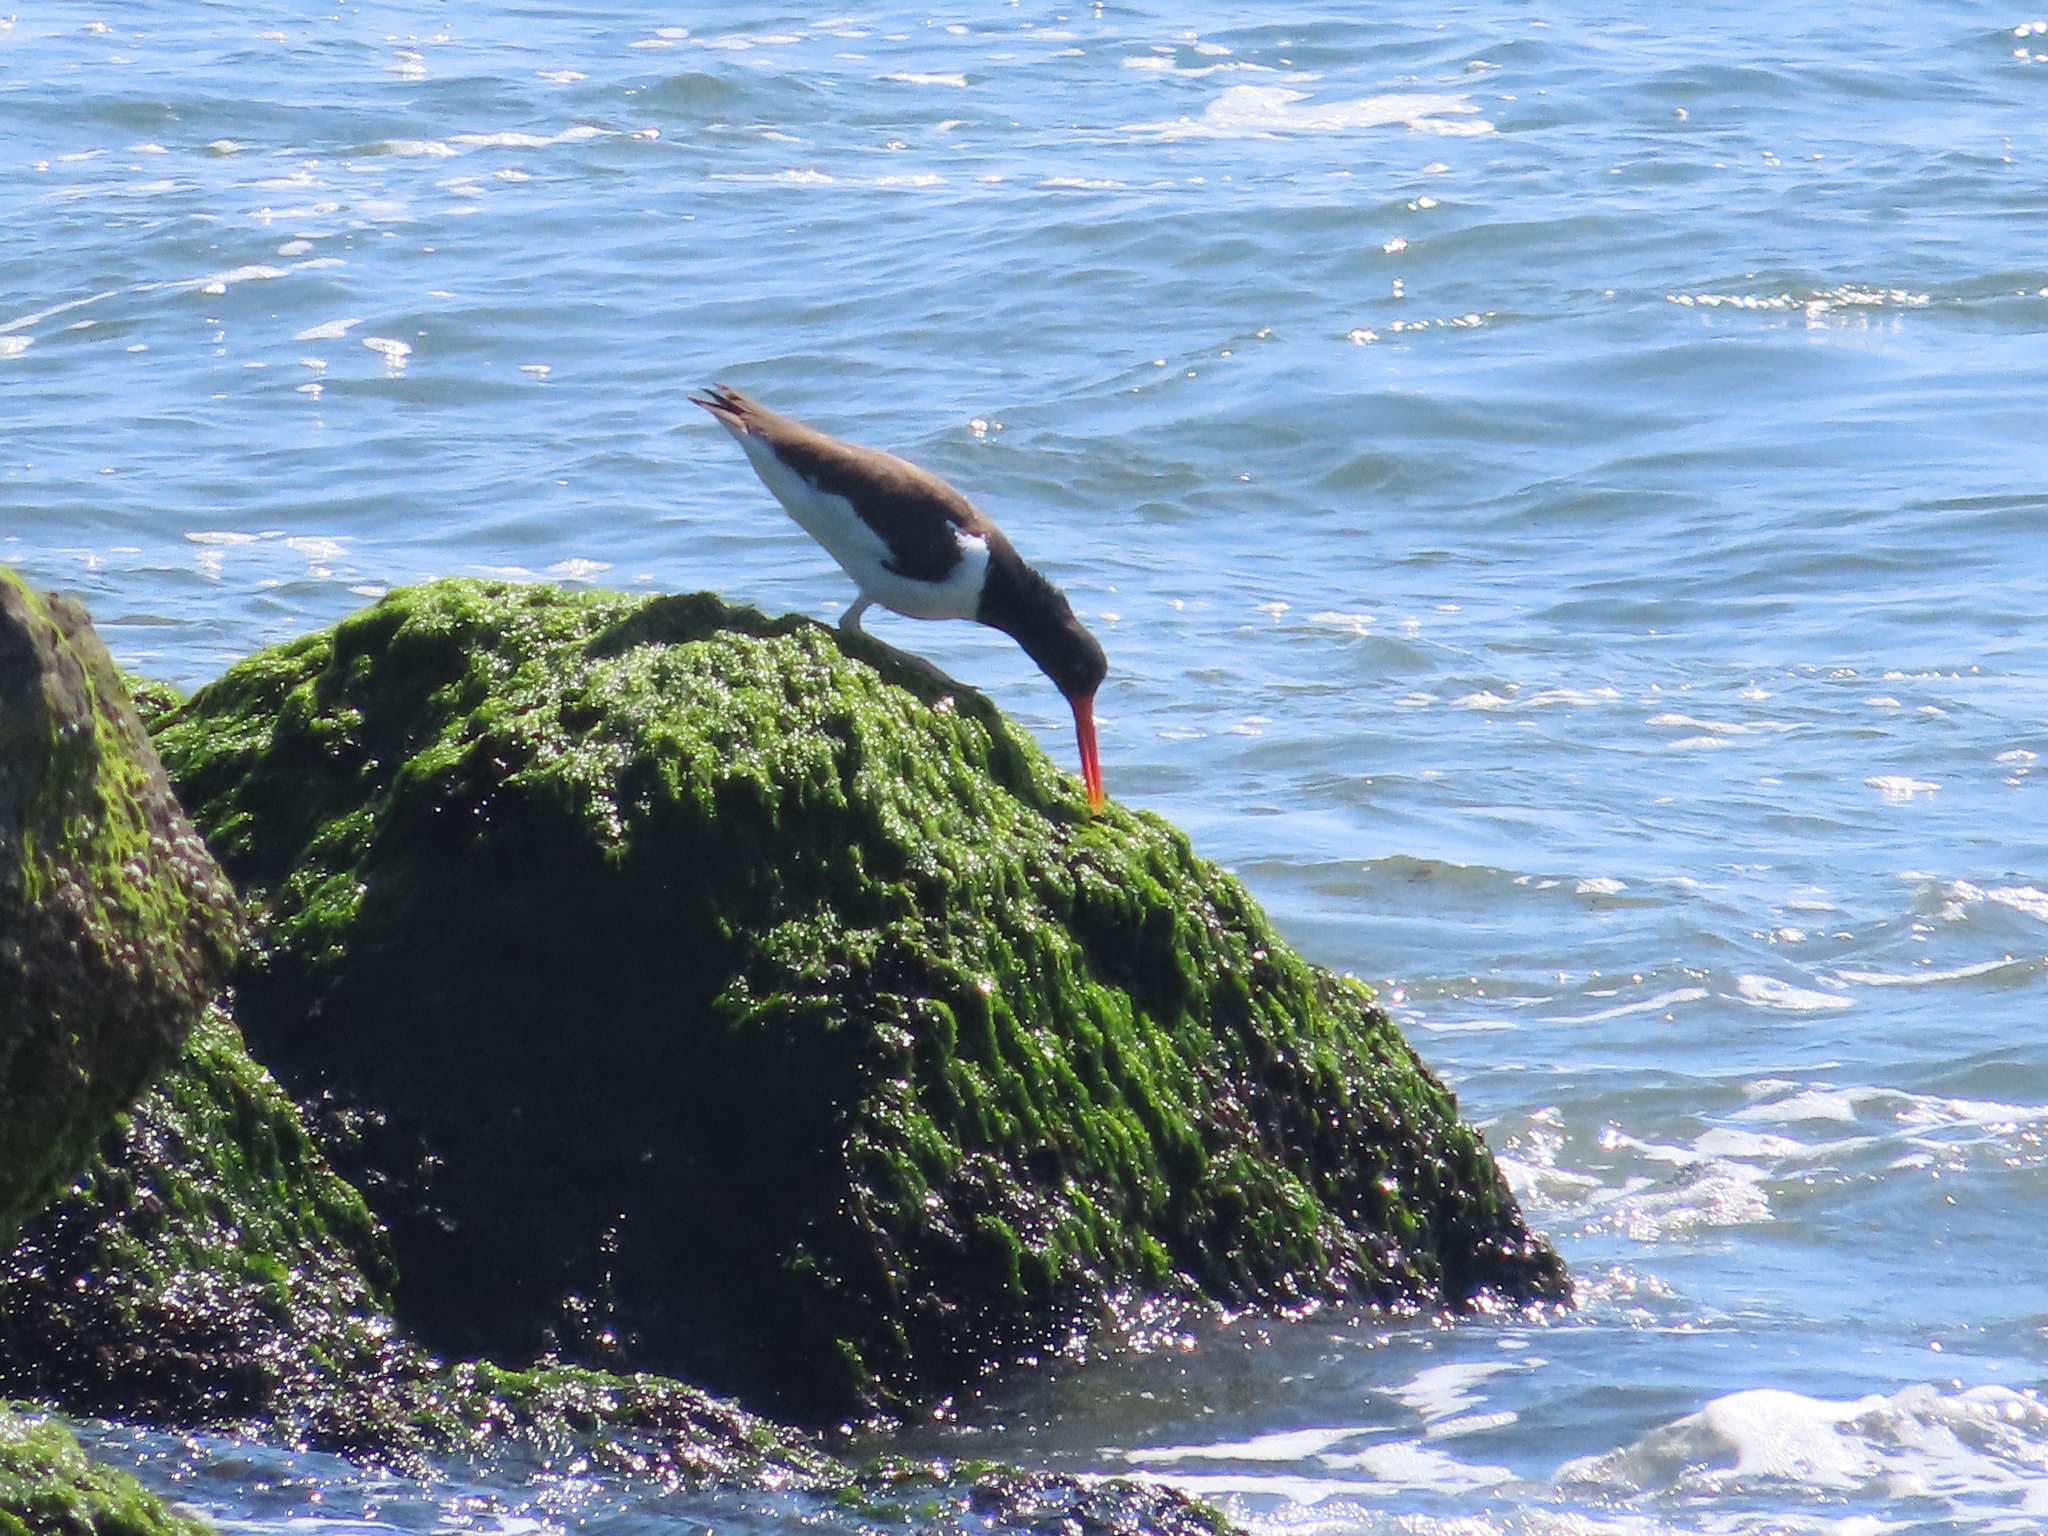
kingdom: Animalia
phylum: Chordata
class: Aves
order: Charadriiformes
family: Haematopodidae
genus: Haematopus
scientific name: Haematopus palliatus
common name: American oystercatcher
